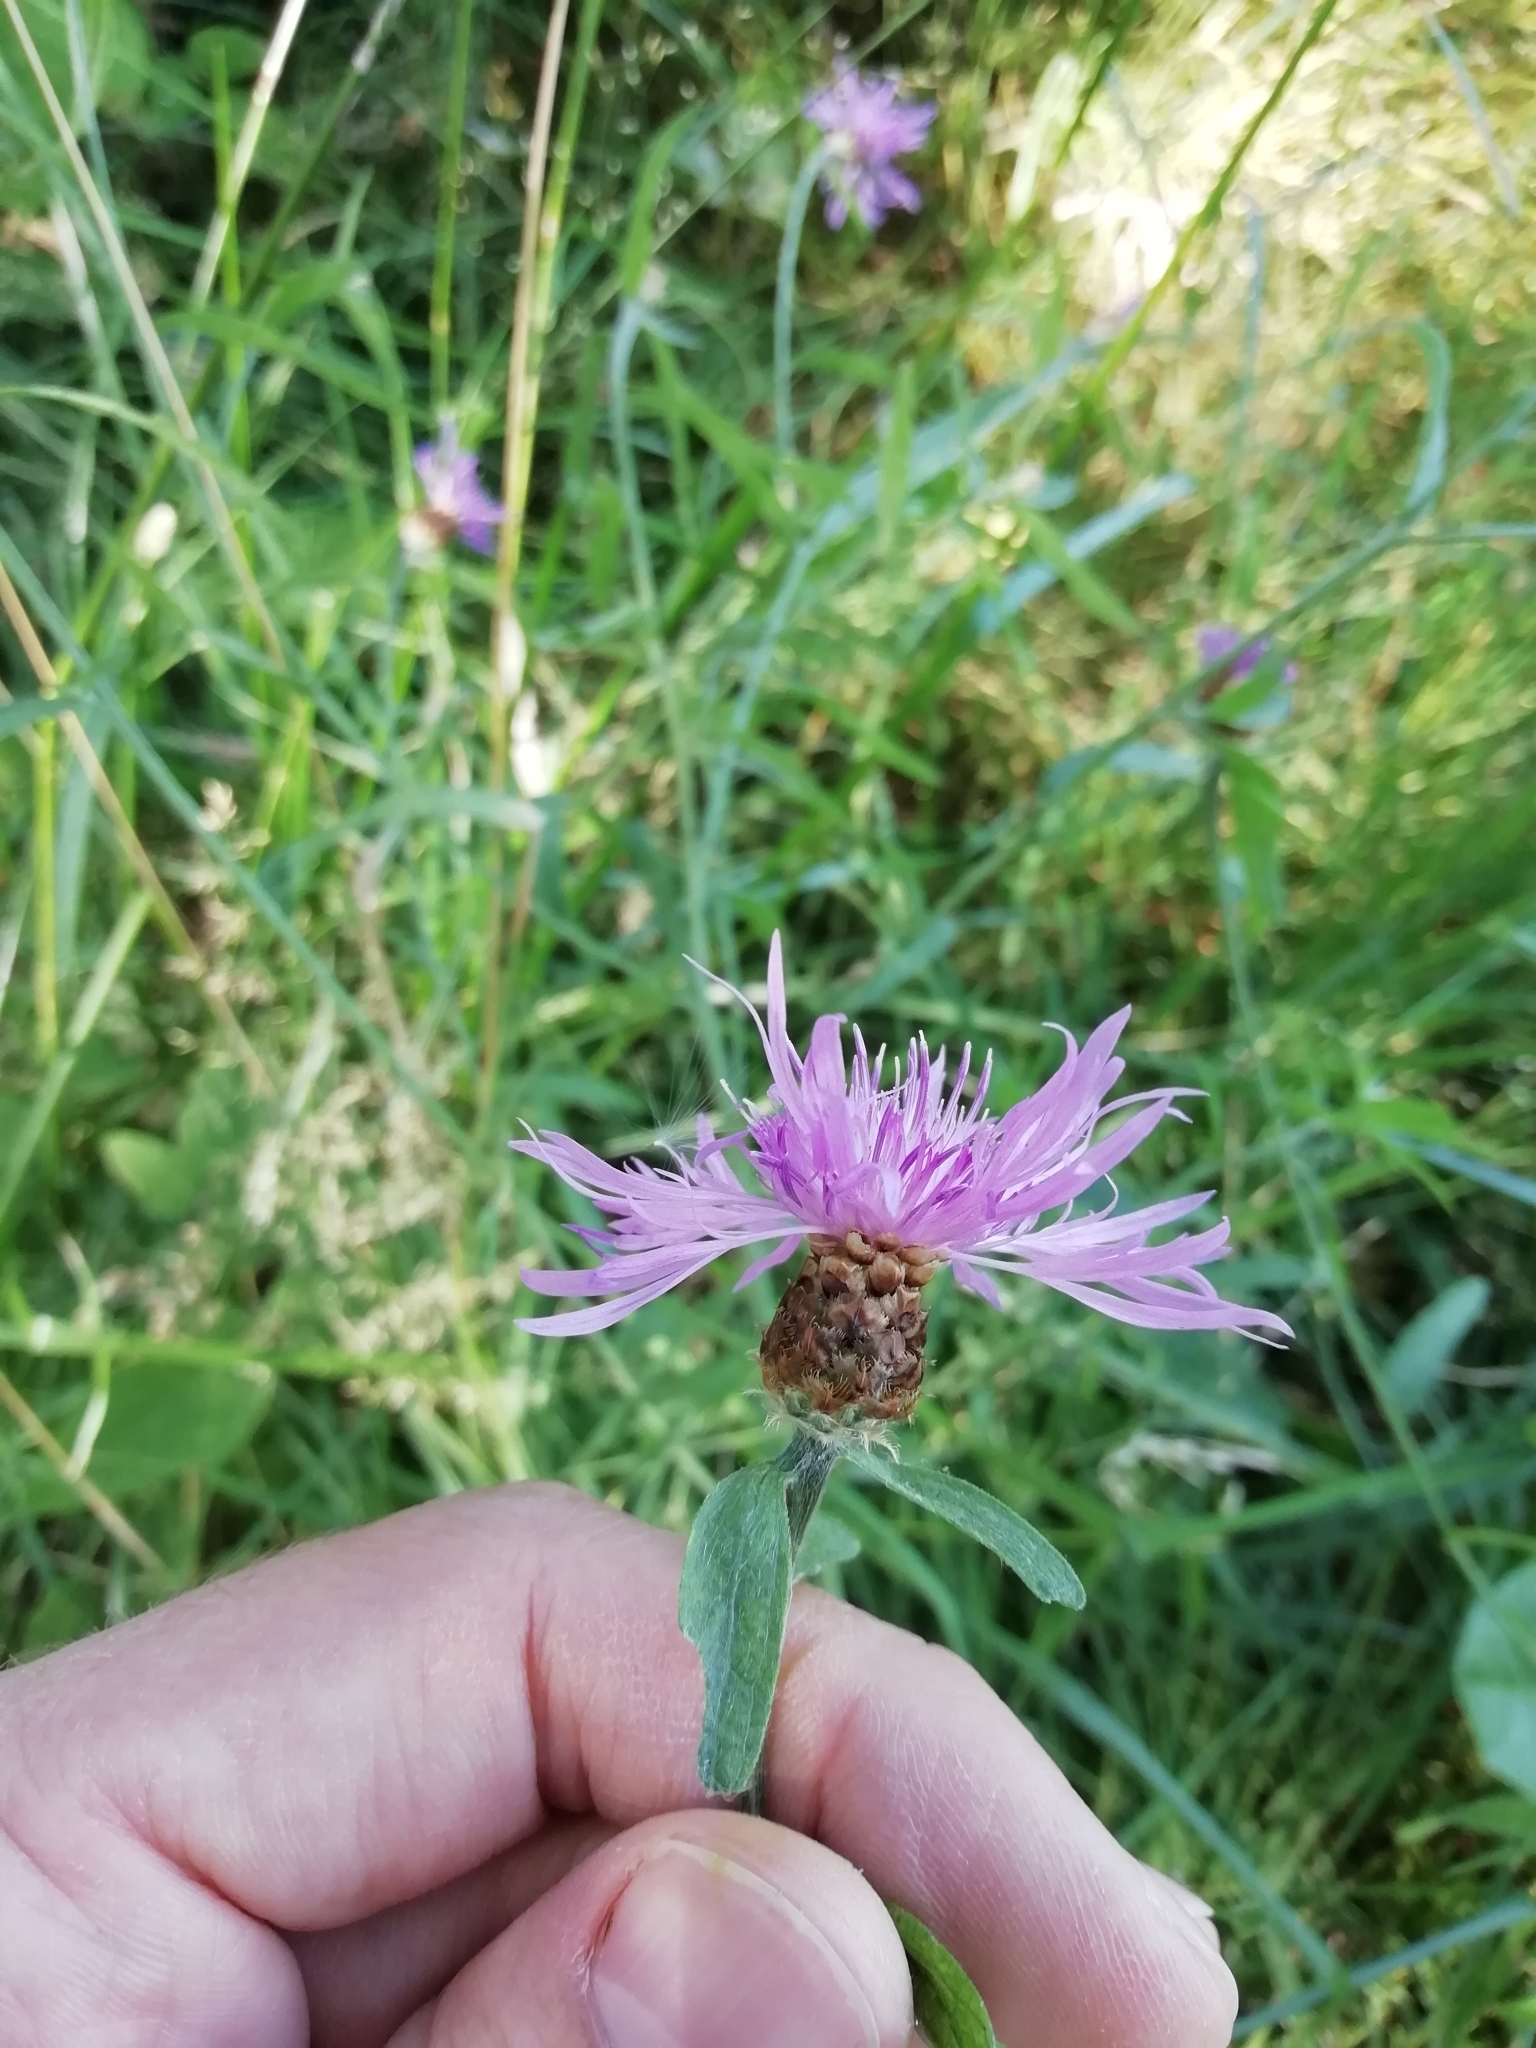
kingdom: Plantae
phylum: Tracheophyta
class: Magnoliopsida
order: Asterales
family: Asteraceae
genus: Centaurea
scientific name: Centaurea jacea
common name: Brown knapweed
